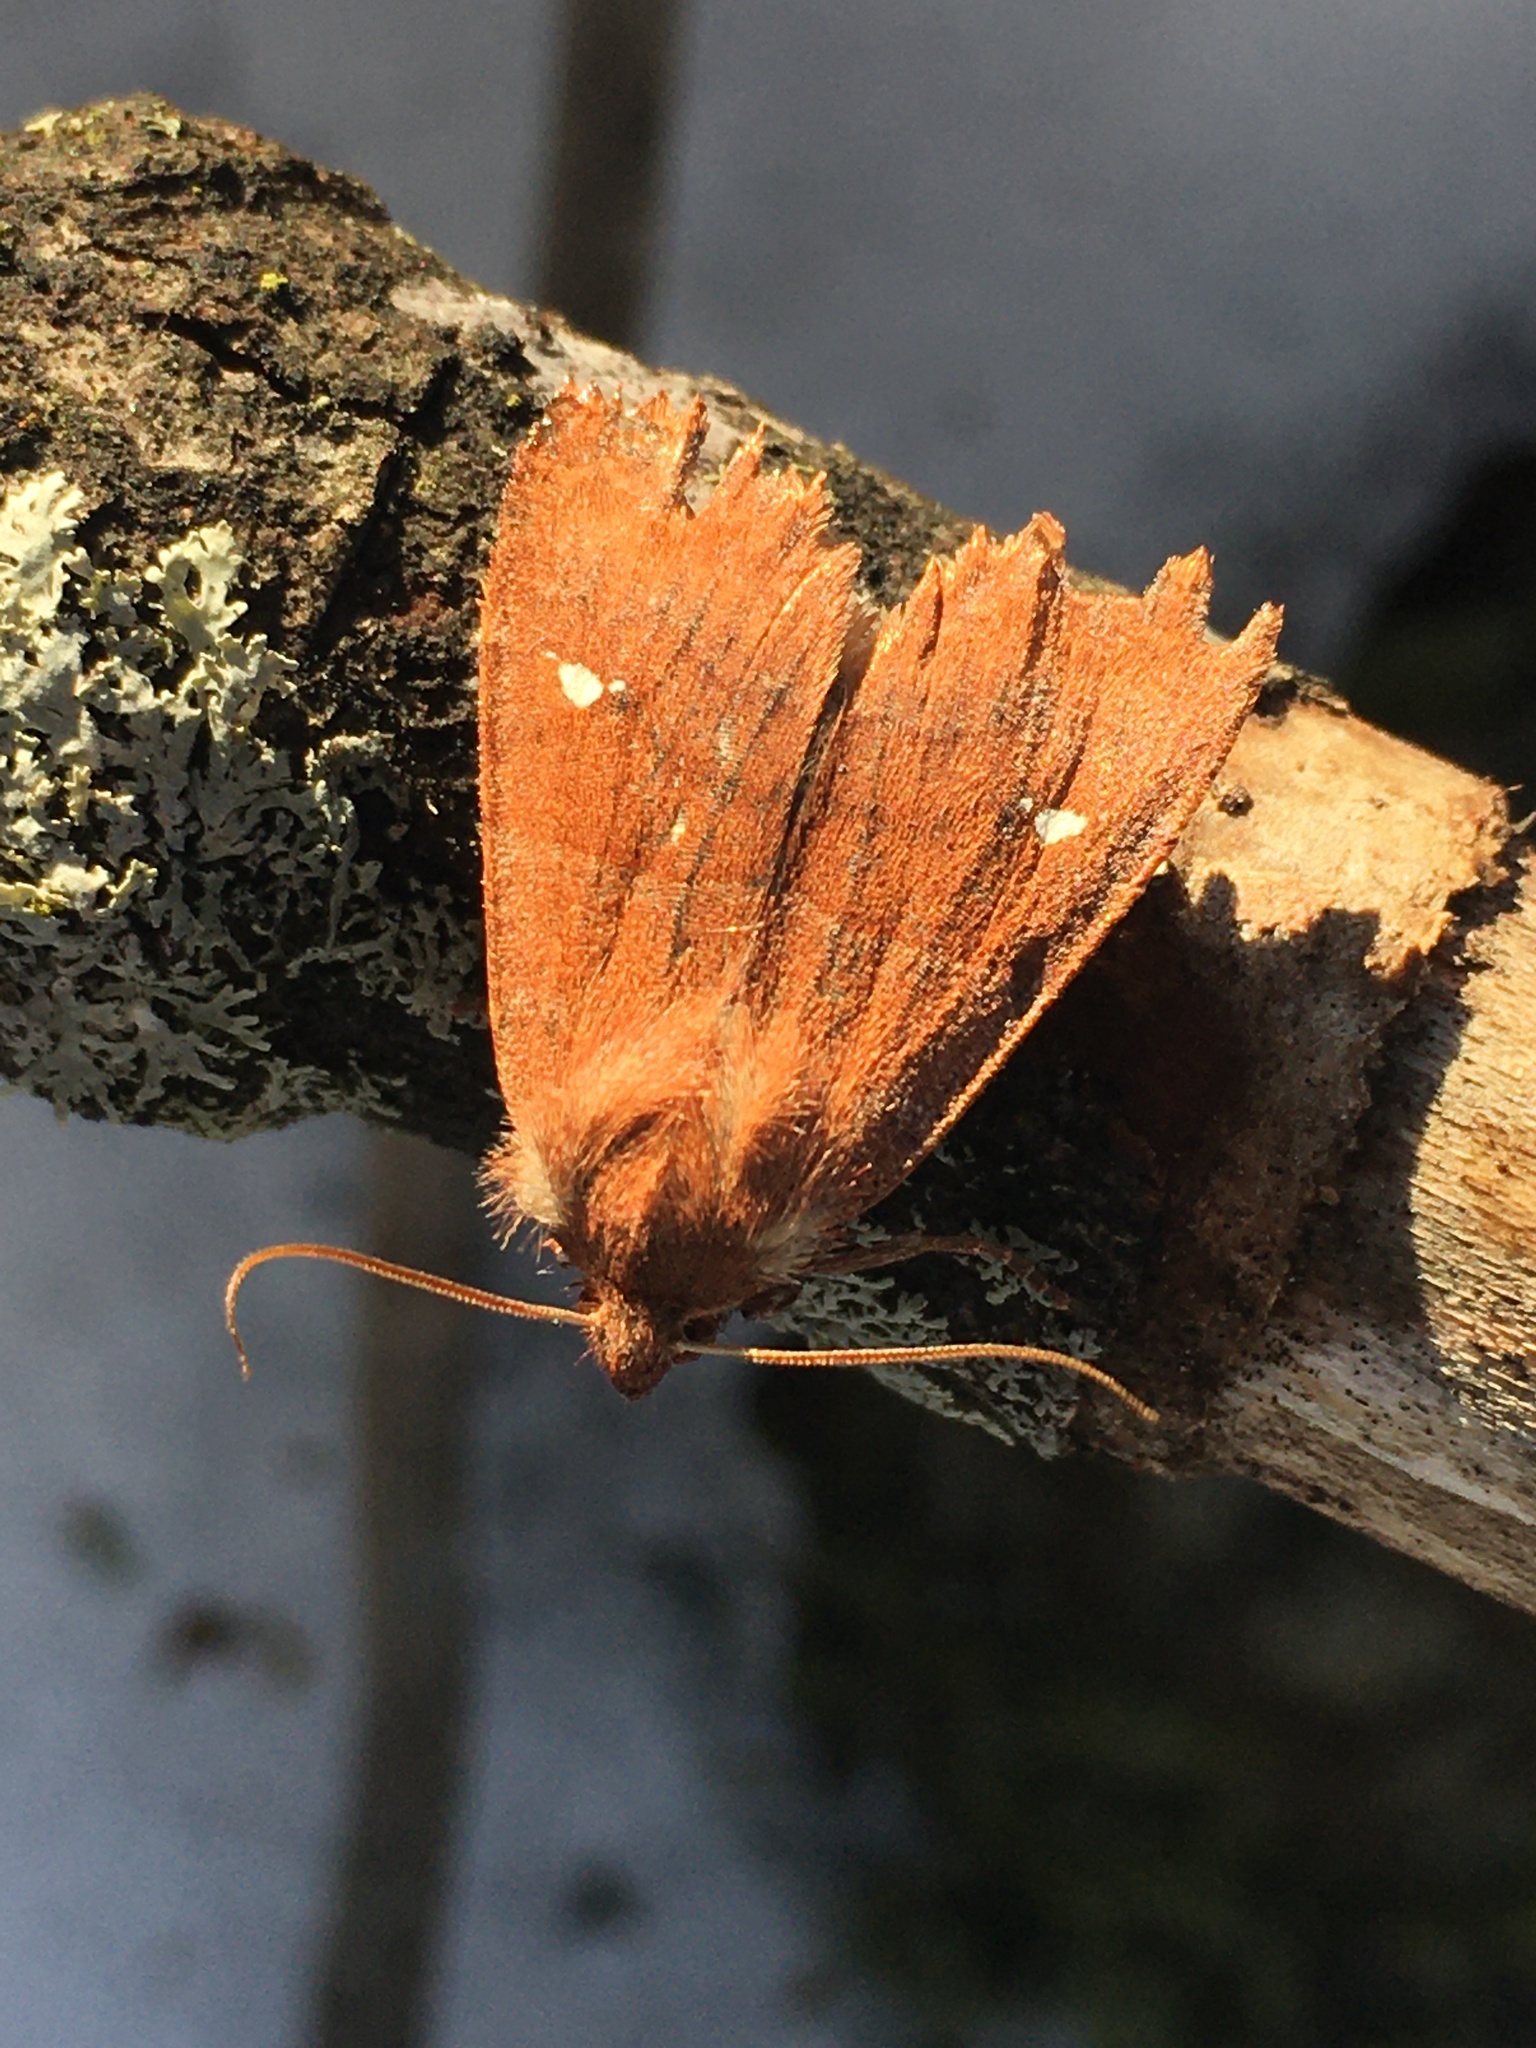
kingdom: Animalia
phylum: Arthropoda
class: Insecta
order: Lepidoptera
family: Noctuidae
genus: Eupsilia
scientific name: Eupsilia vinulenta
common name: Straight-toothed sallow
